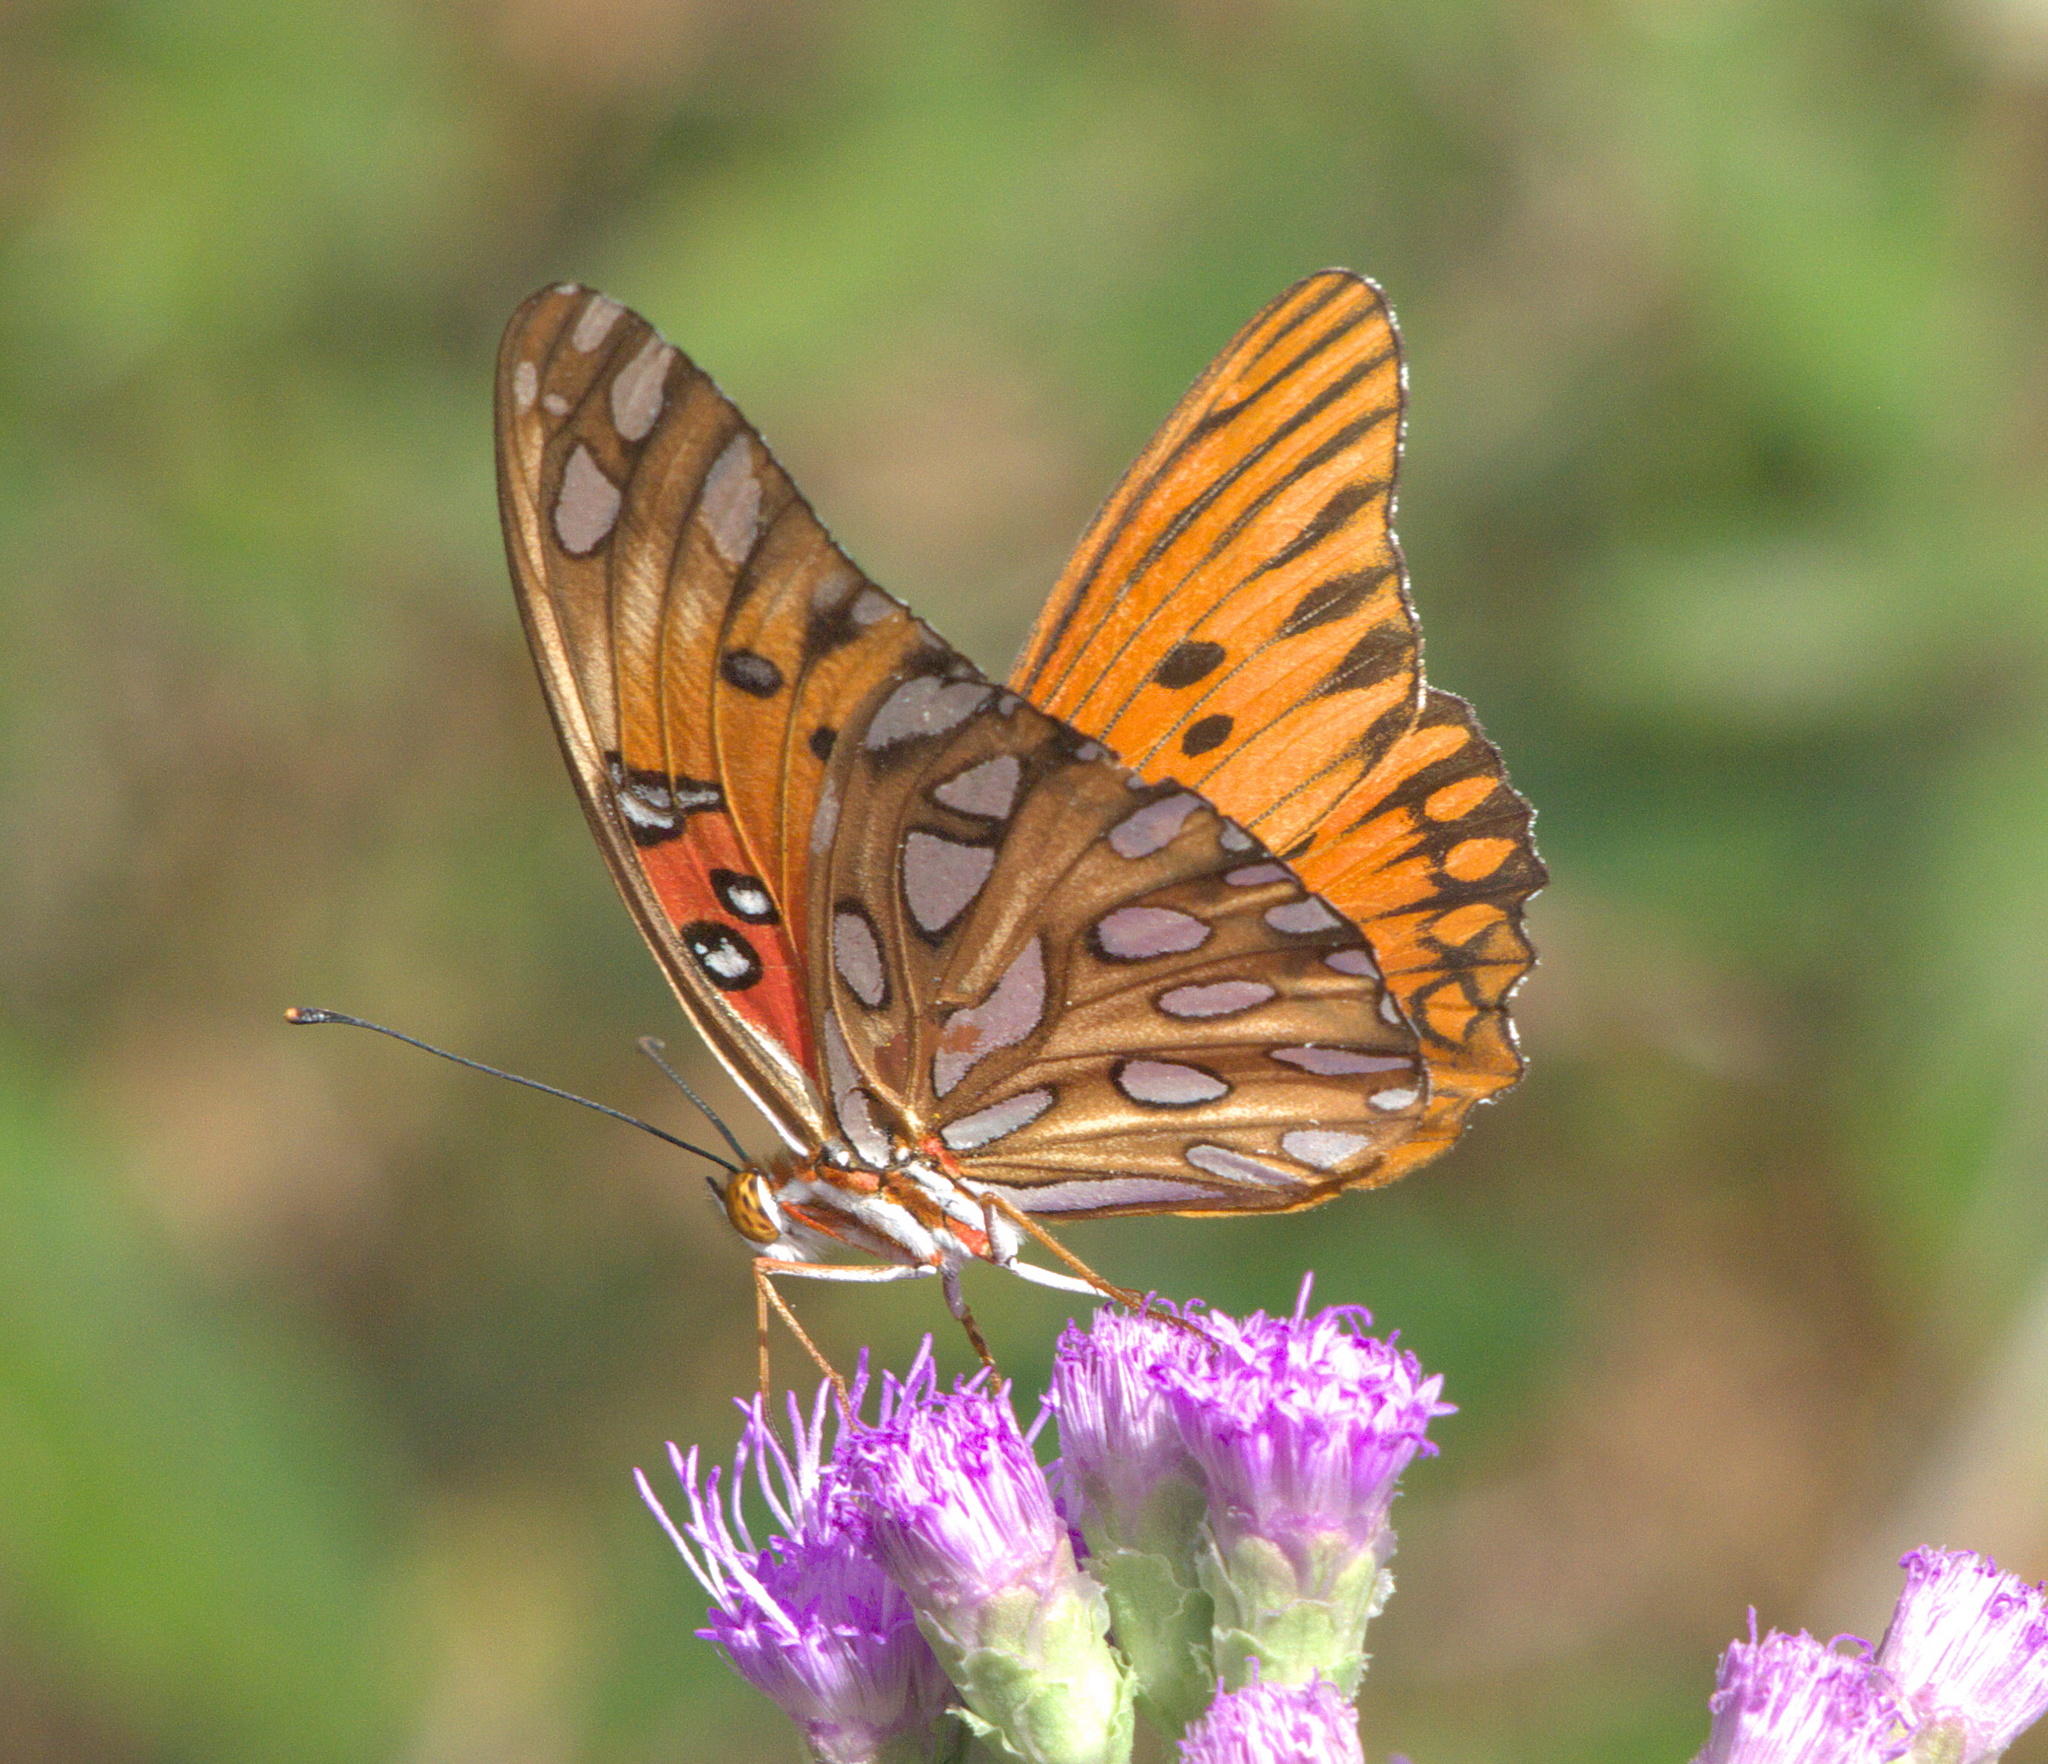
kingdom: Animalia
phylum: Arthropoda
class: Insecta
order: Lepidoptera
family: Nymphalidae
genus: Dione
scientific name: Dione vanillae
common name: Gulf fritillary
